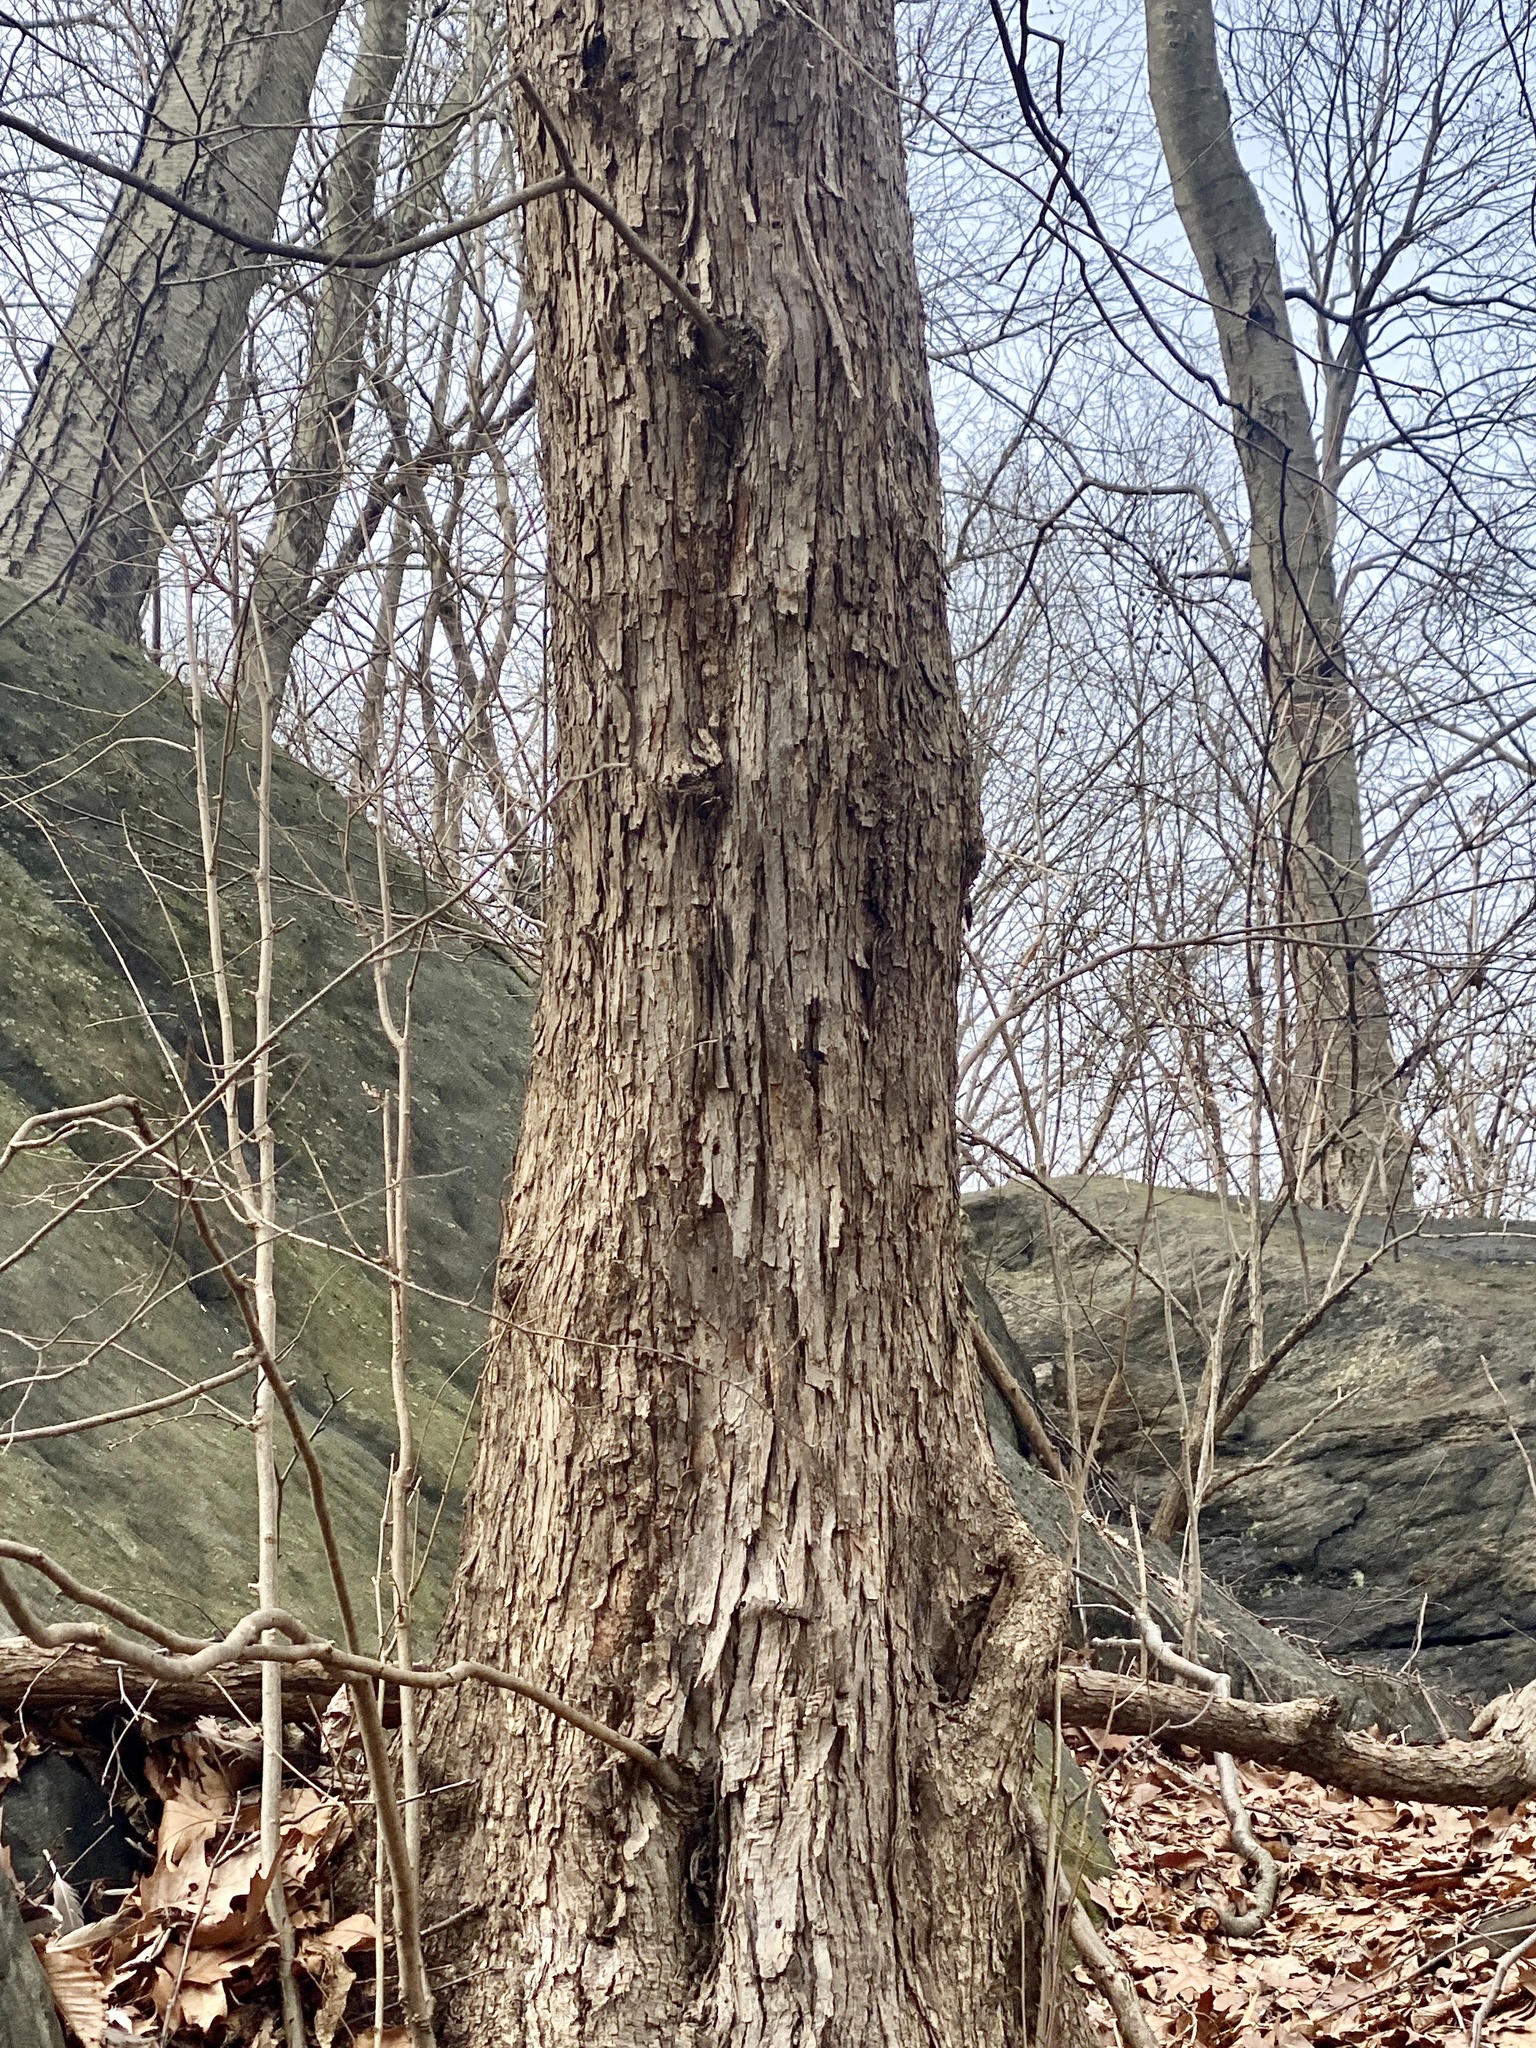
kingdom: Plantae
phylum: Tracheophyta
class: Magnoliopsida
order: Fagales
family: Betulaceae
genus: Ostrya
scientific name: Ostrya virginiana
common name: Ironwood
